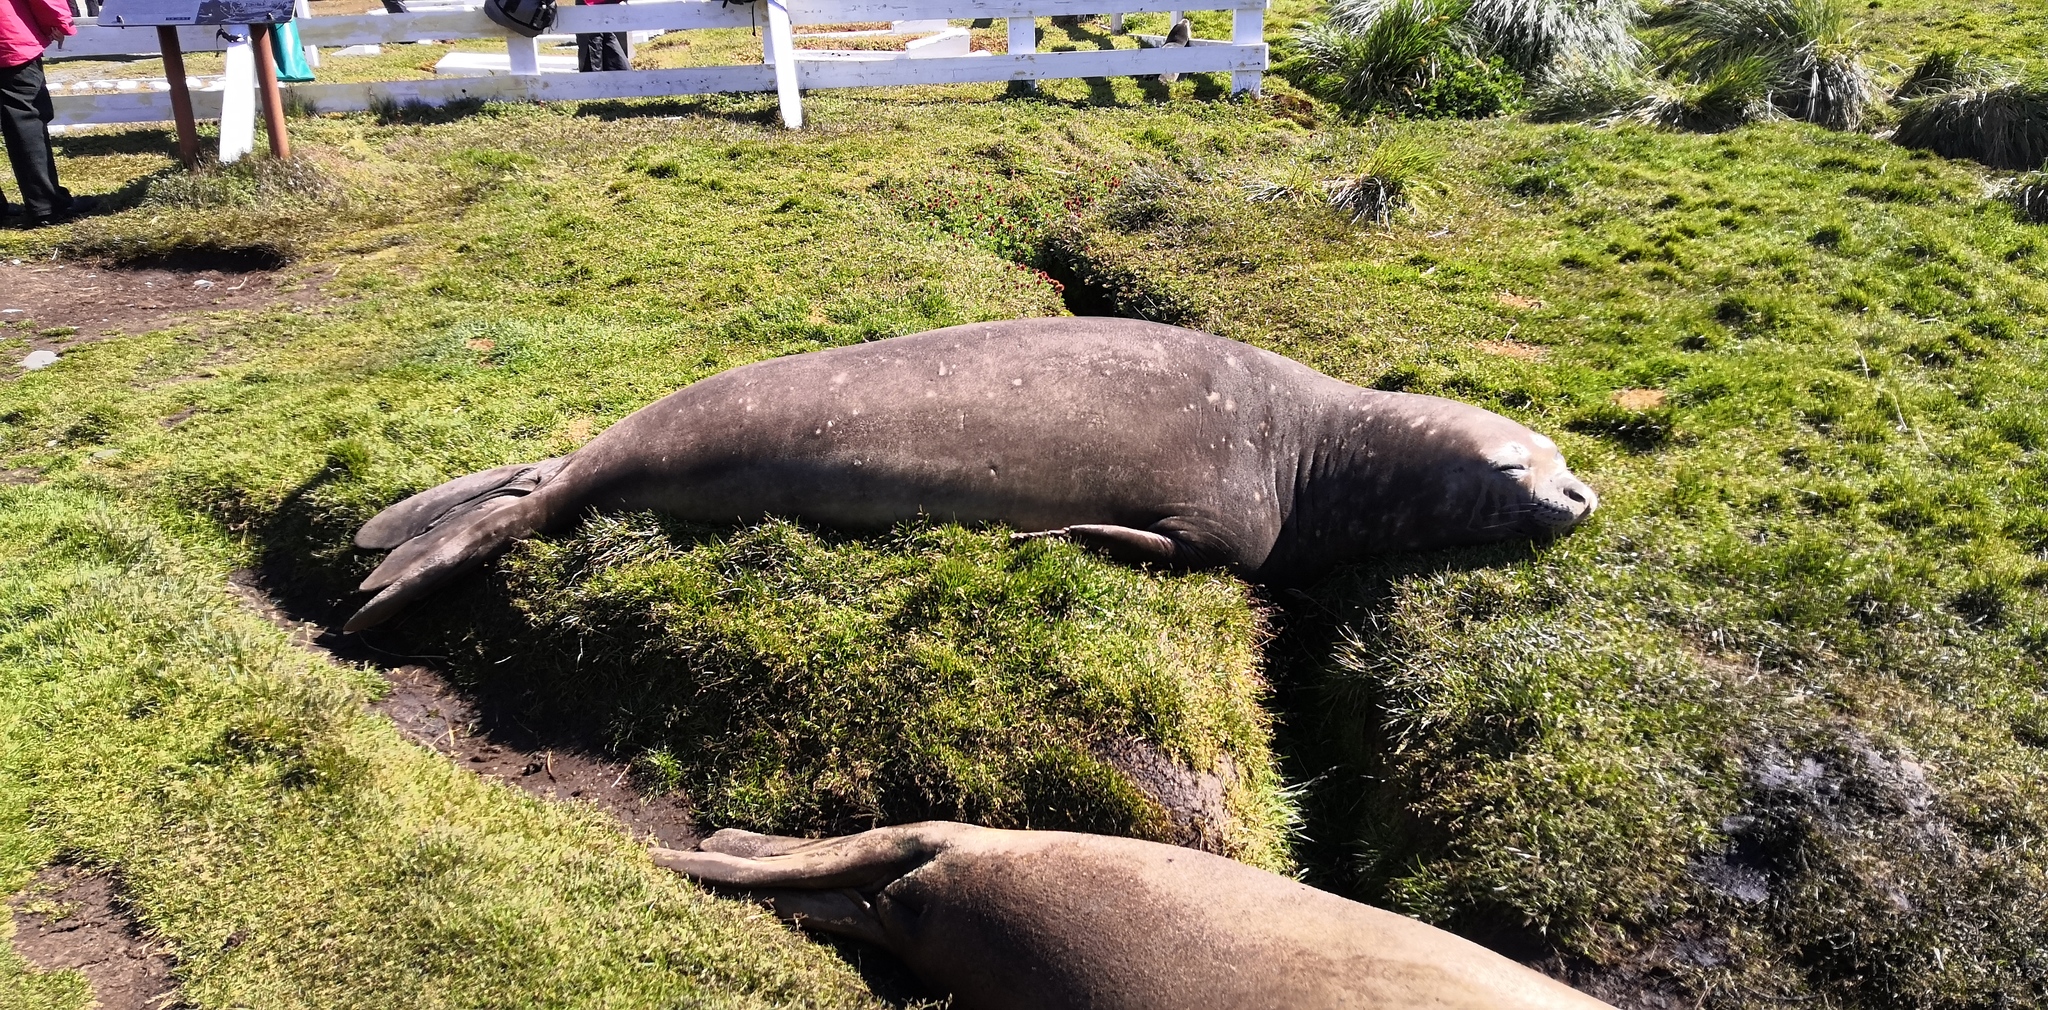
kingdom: Animalia
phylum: Chordata
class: Mammalia
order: Carnivora
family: Phocidae
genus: Mirounga
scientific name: Mirounga leonina
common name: Southern elephant seal
